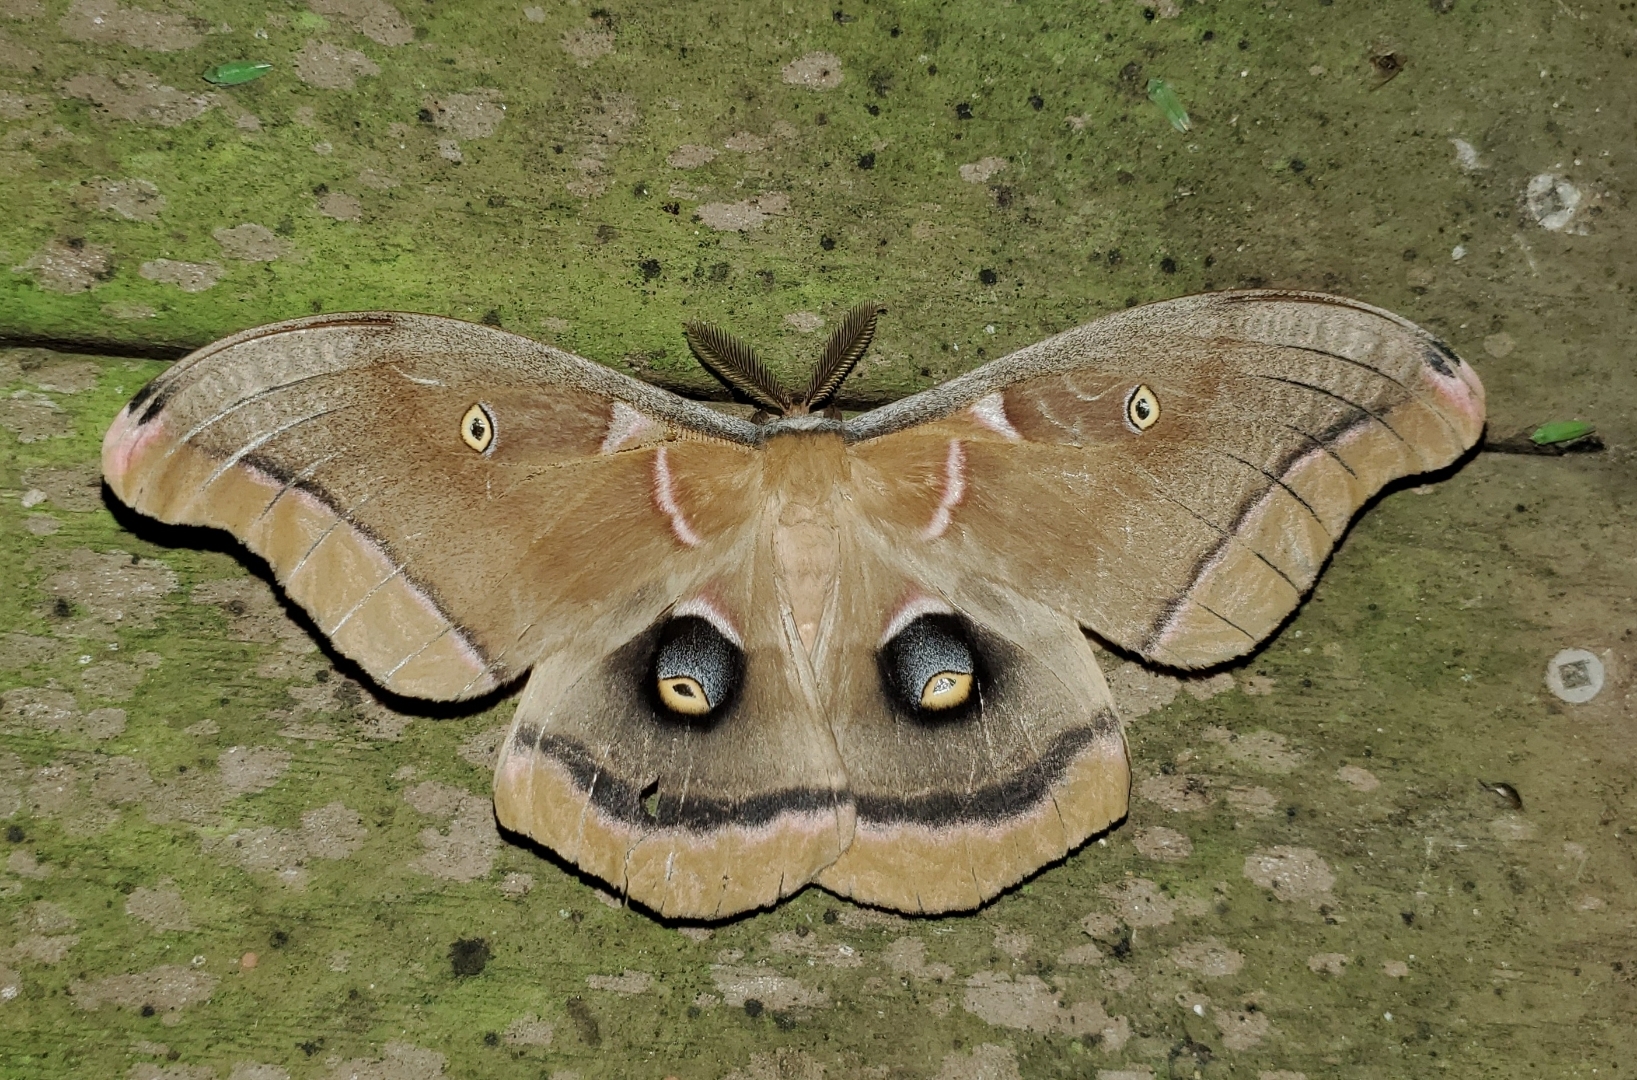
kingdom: Animalia
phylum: Arthropoda
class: Insecta
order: Lepidoptera
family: Saturniidae
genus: Antheraea
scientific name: Antheraea polyphemus
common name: Polyphemus moth
